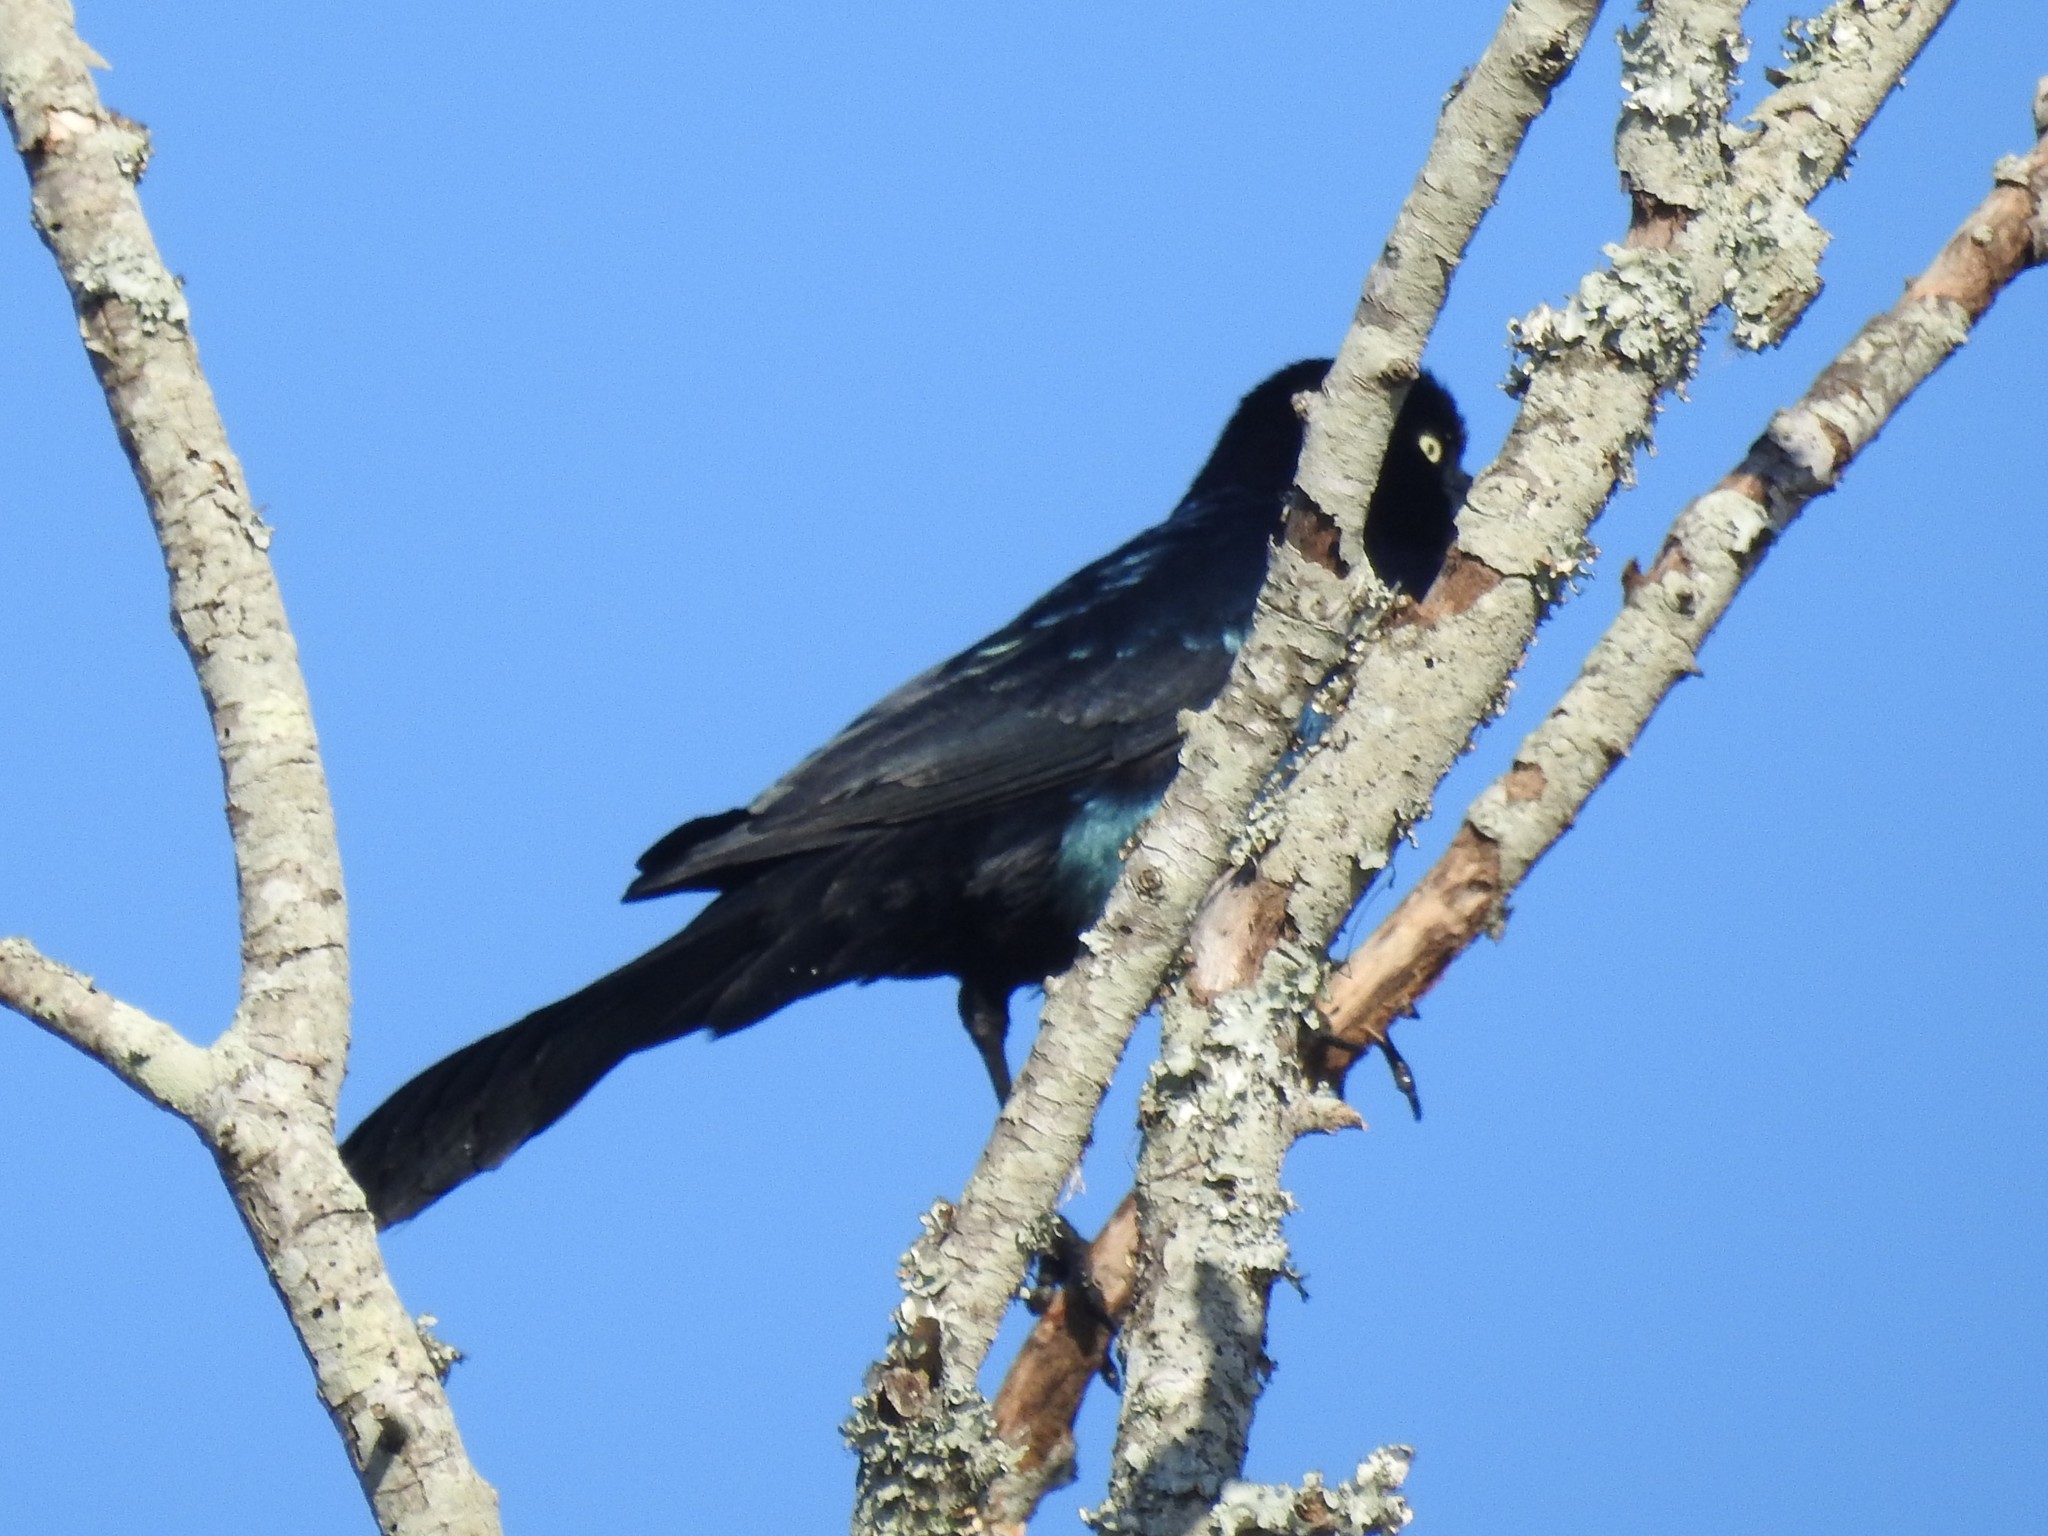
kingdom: Animalia
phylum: Chordata
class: Aves
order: Passeriformes
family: Icteridae
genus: Quiscalus
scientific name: Quiscalus major
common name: Boat-tailed grackle
